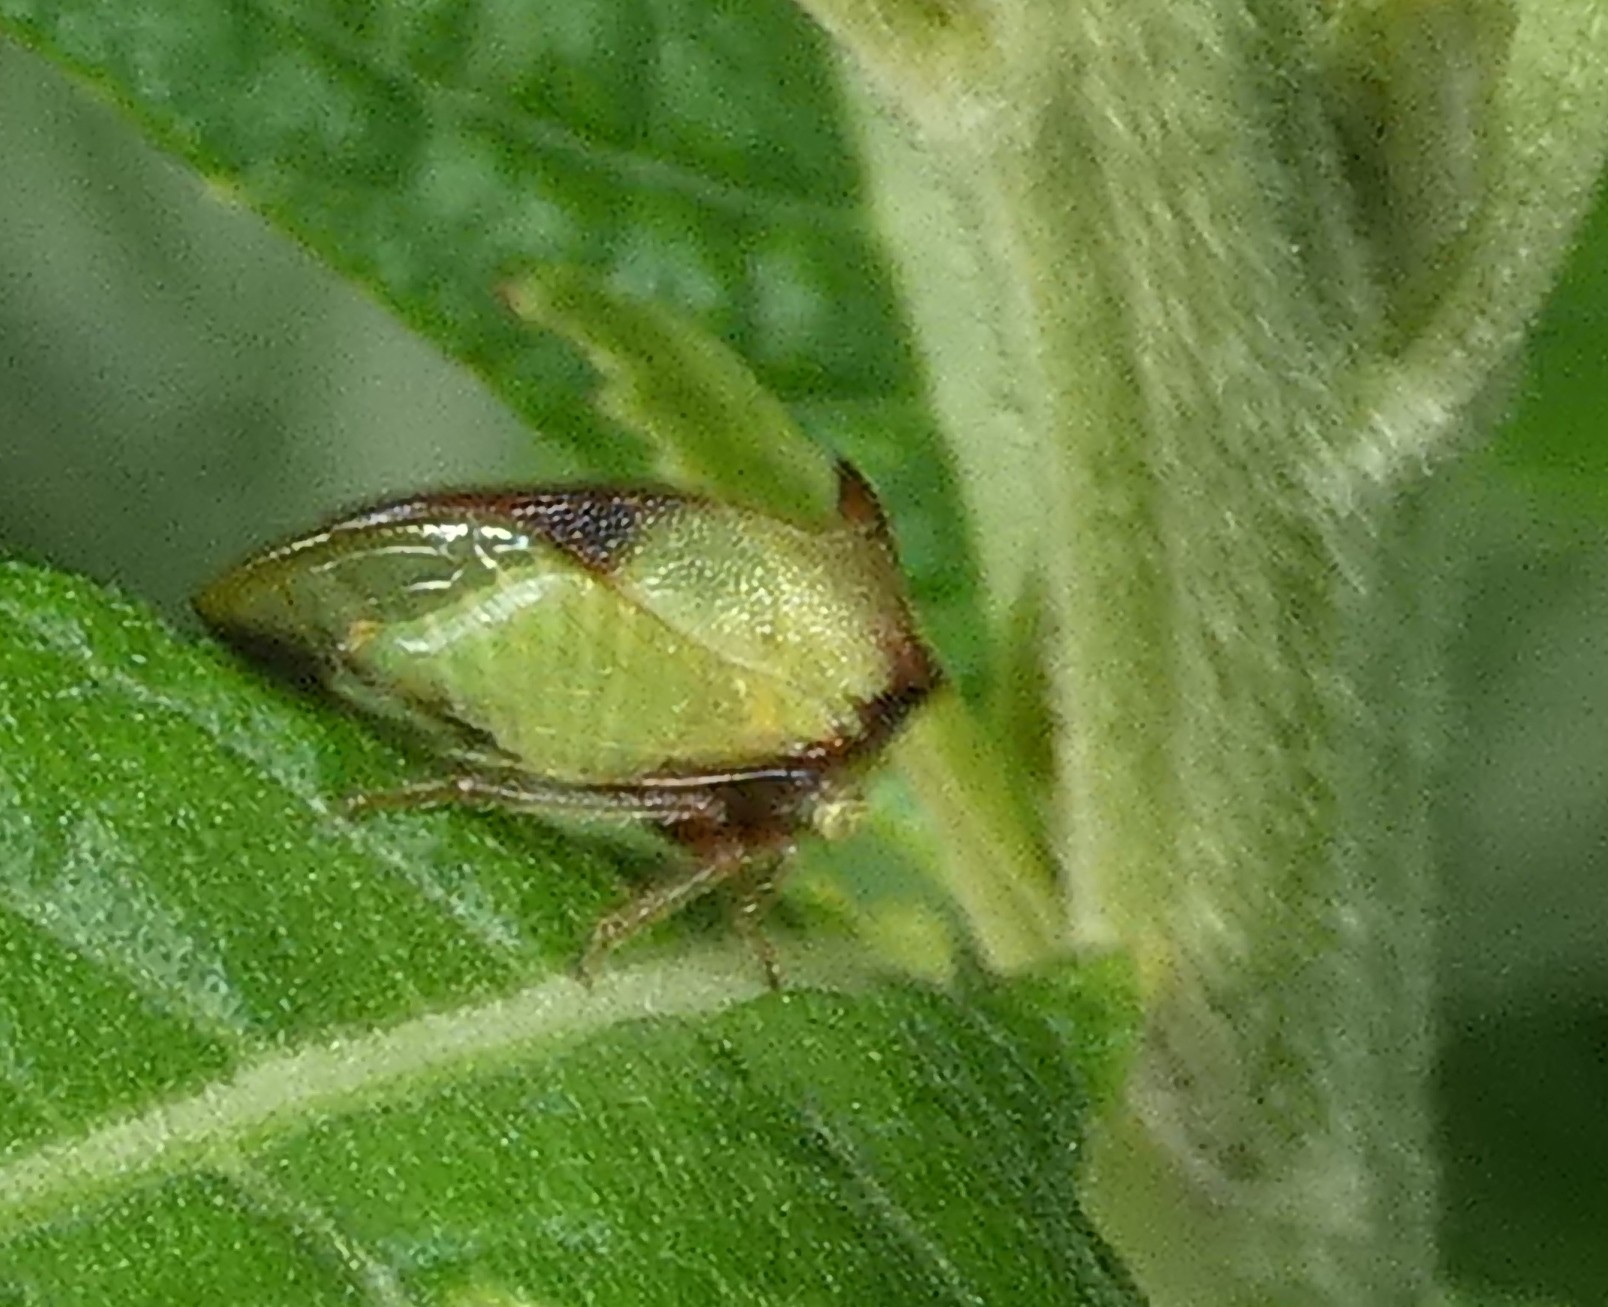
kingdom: Animalia
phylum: Arthropoda
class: Insecta
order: Hemiptera
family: Membracidae
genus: Ceresa
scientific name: Ceresa ustulata
